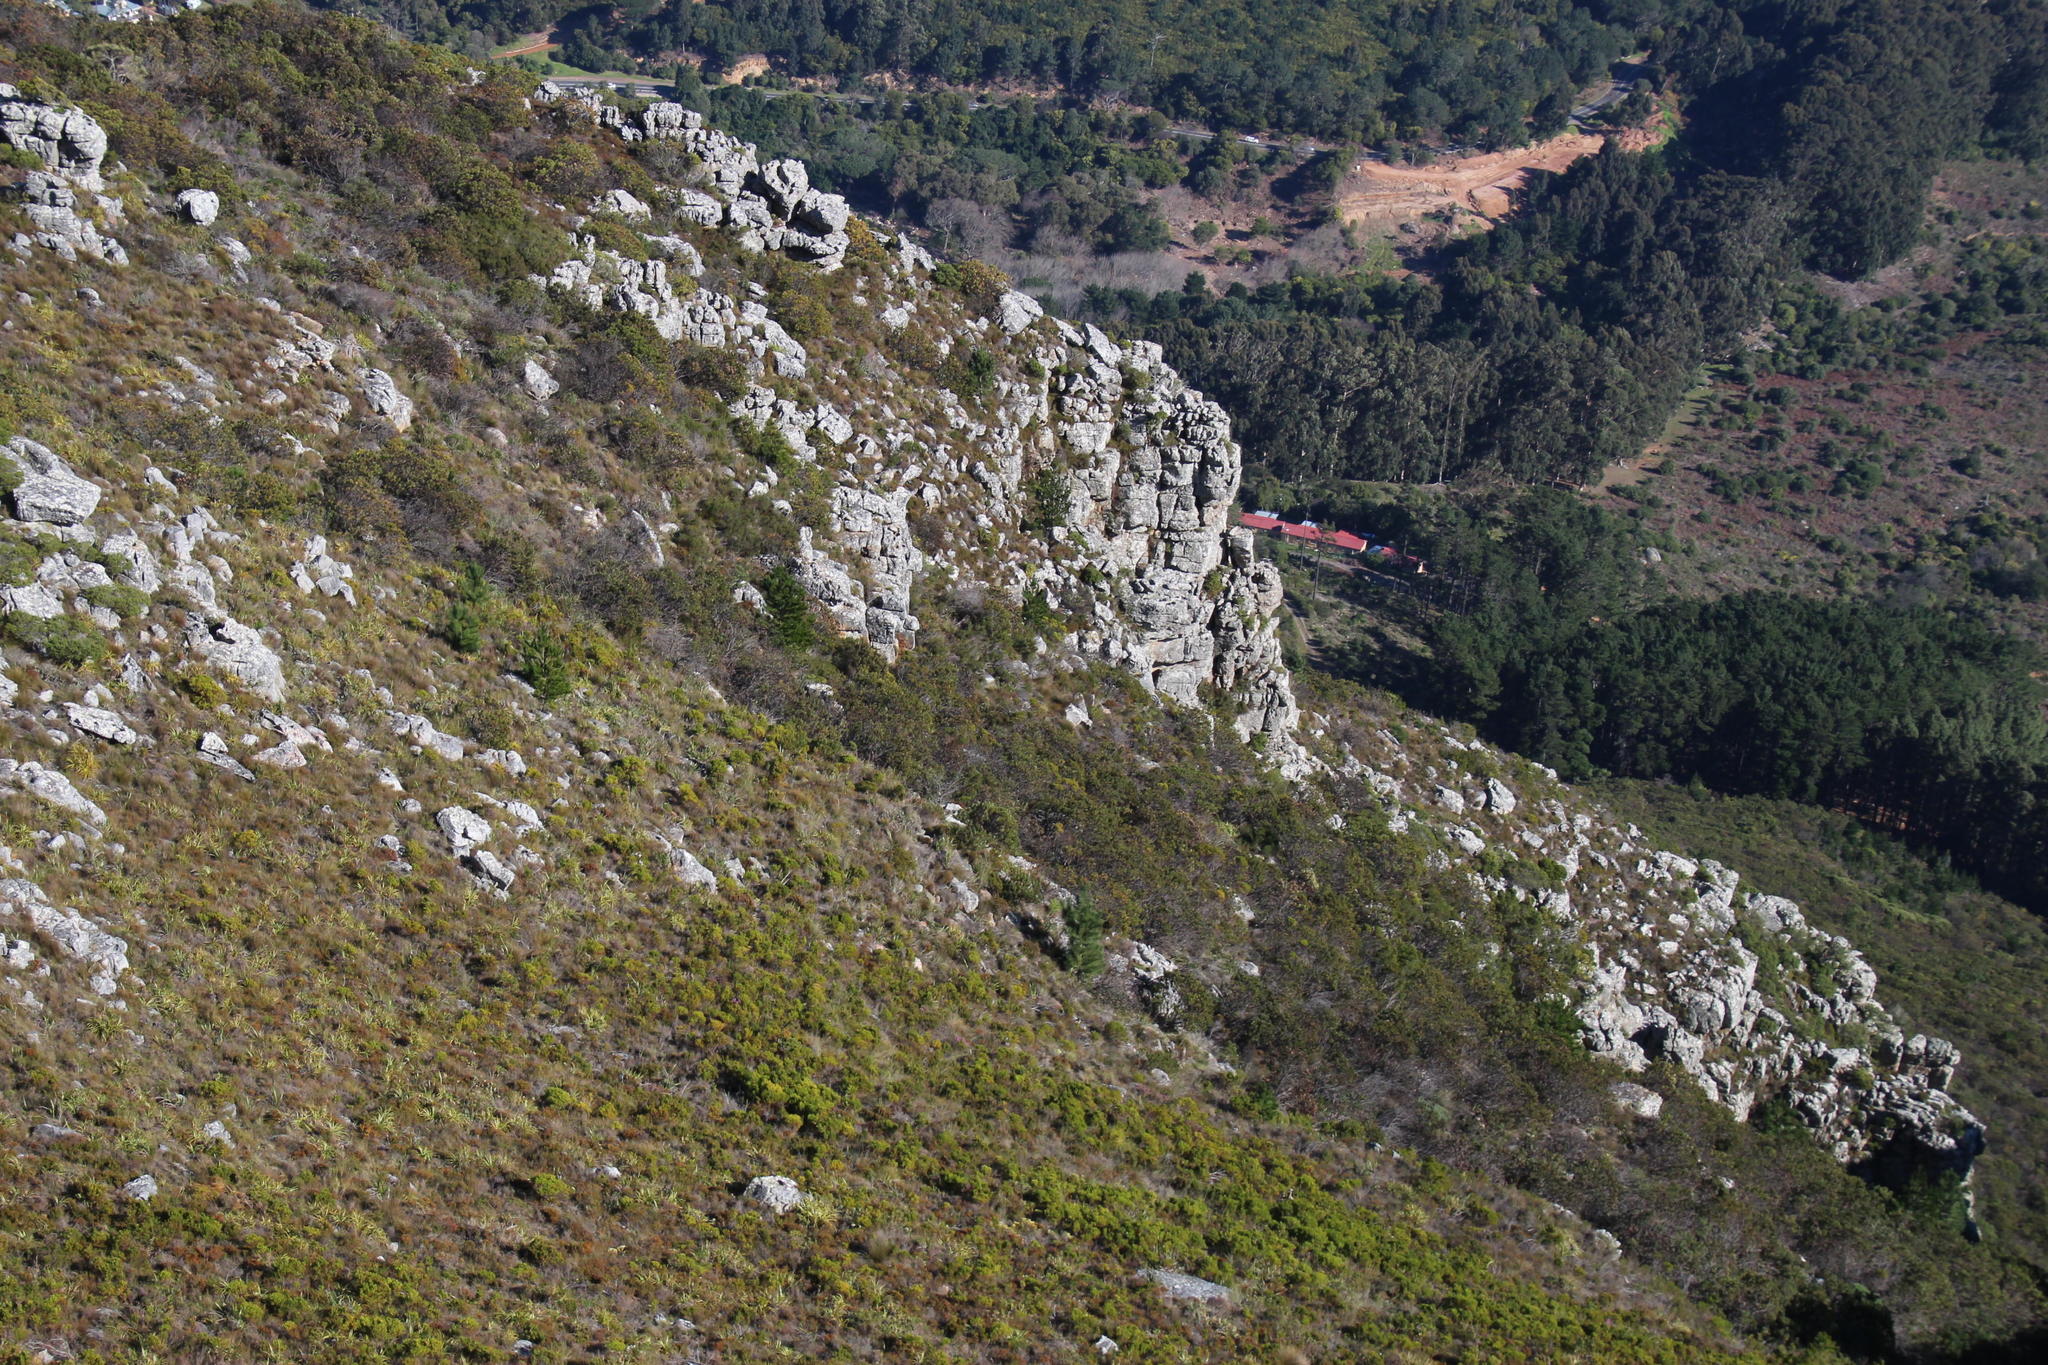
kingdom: Plantae
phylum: Tracheophyta
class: Pinopsida
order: Pinales
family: Pinaceae
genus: Pinus
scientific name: Pinus pinaster
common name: Maritime pine
